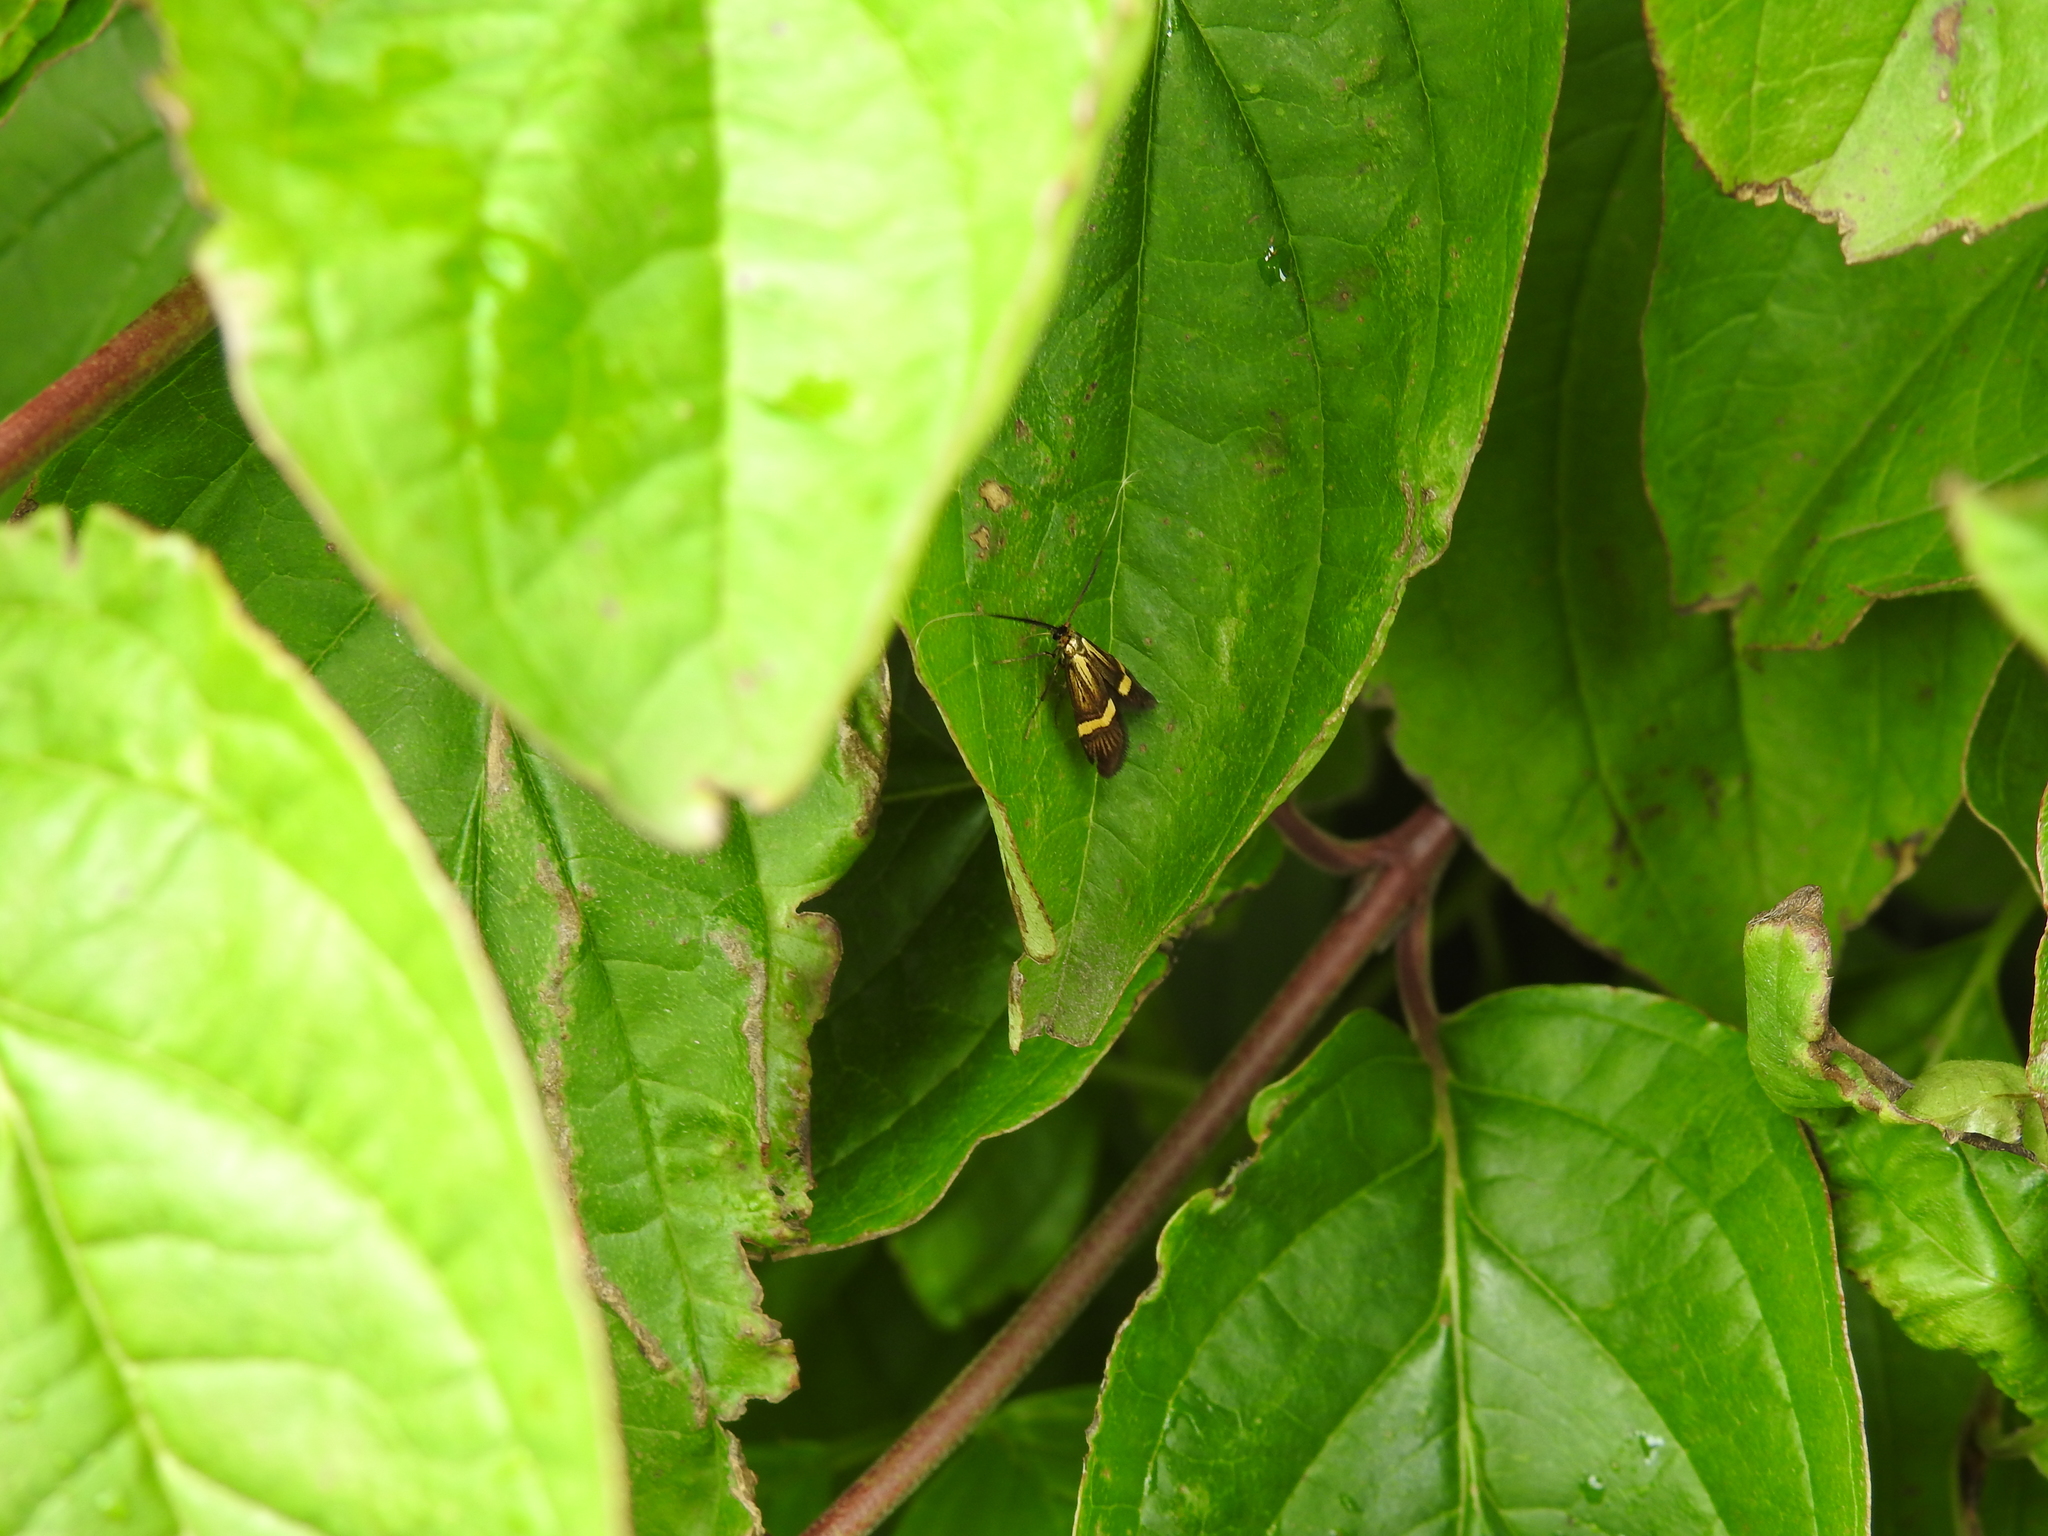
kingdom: Animalia
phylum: Arthropoda
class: Insecta
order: Lepidoptera
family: Adelidae
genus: Nemophora
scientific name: Nemophora degeerella
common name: Yellow-barred long-horn
